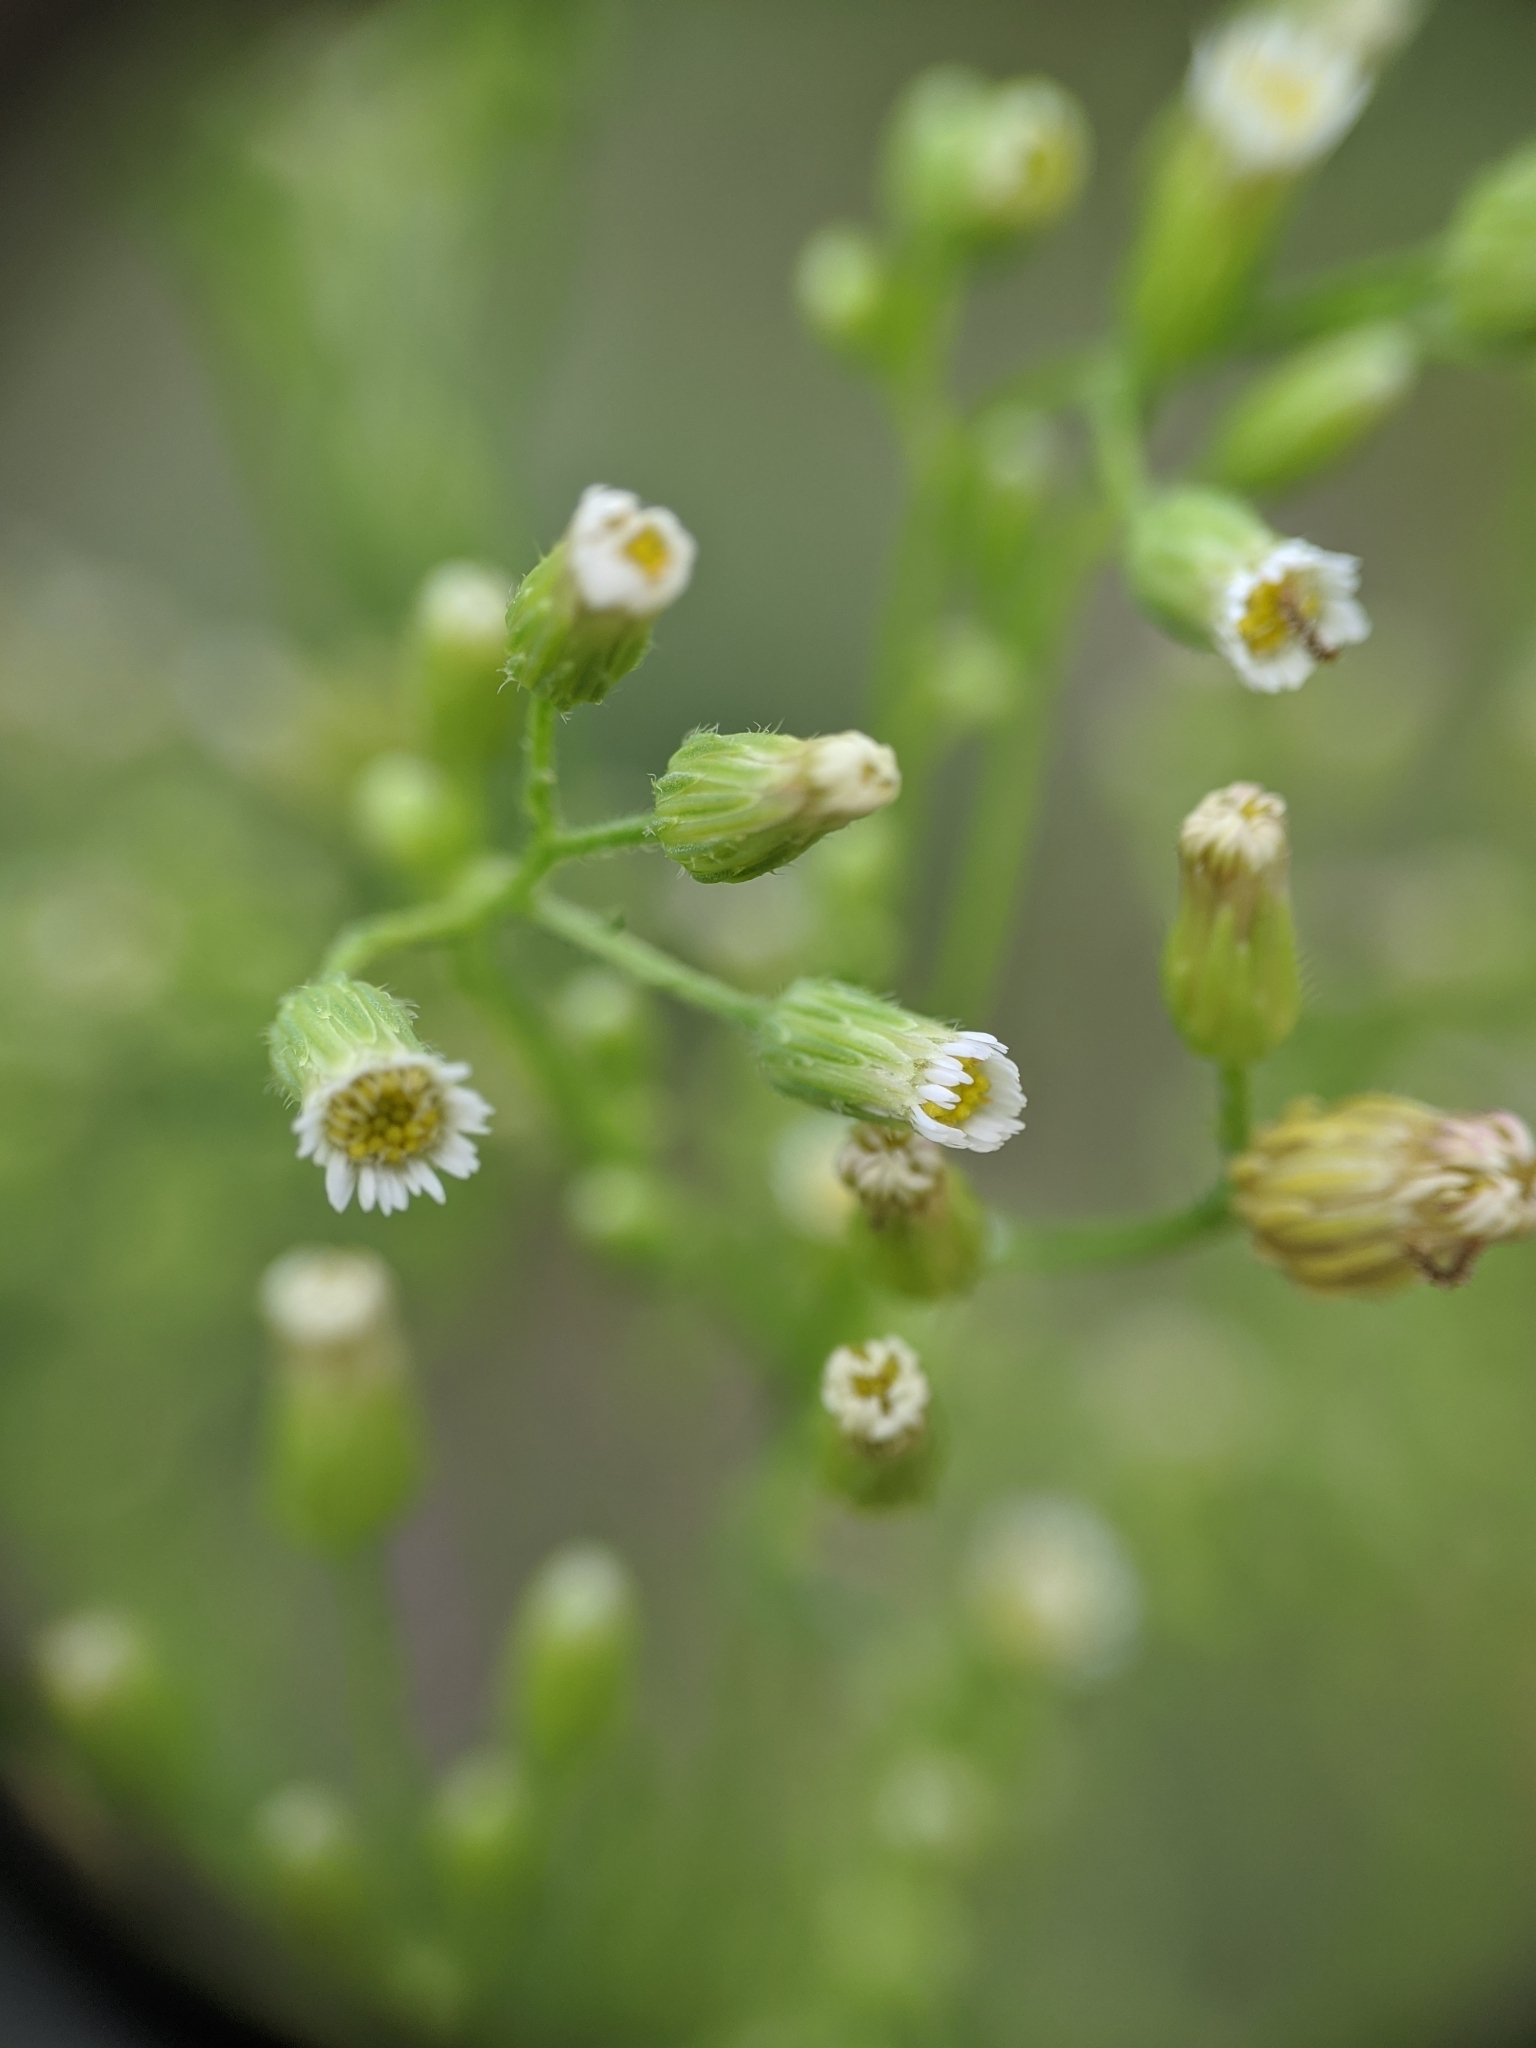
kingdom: Plantae
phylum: Tracheophyta
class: Magnoliopsida
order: Asterales
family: Asteraceae
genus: Erigeron
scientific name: Erigeron canadensis
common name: Canadian fleabane
